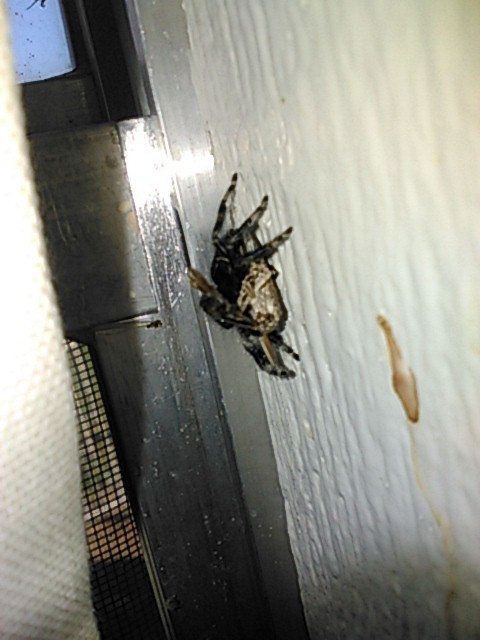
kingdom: Animalia
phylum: Arthropoda
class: Arachnida
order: Araneae
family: Salticidae
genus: Phidippus
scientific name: Phidippus audax
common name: Bold jumper
